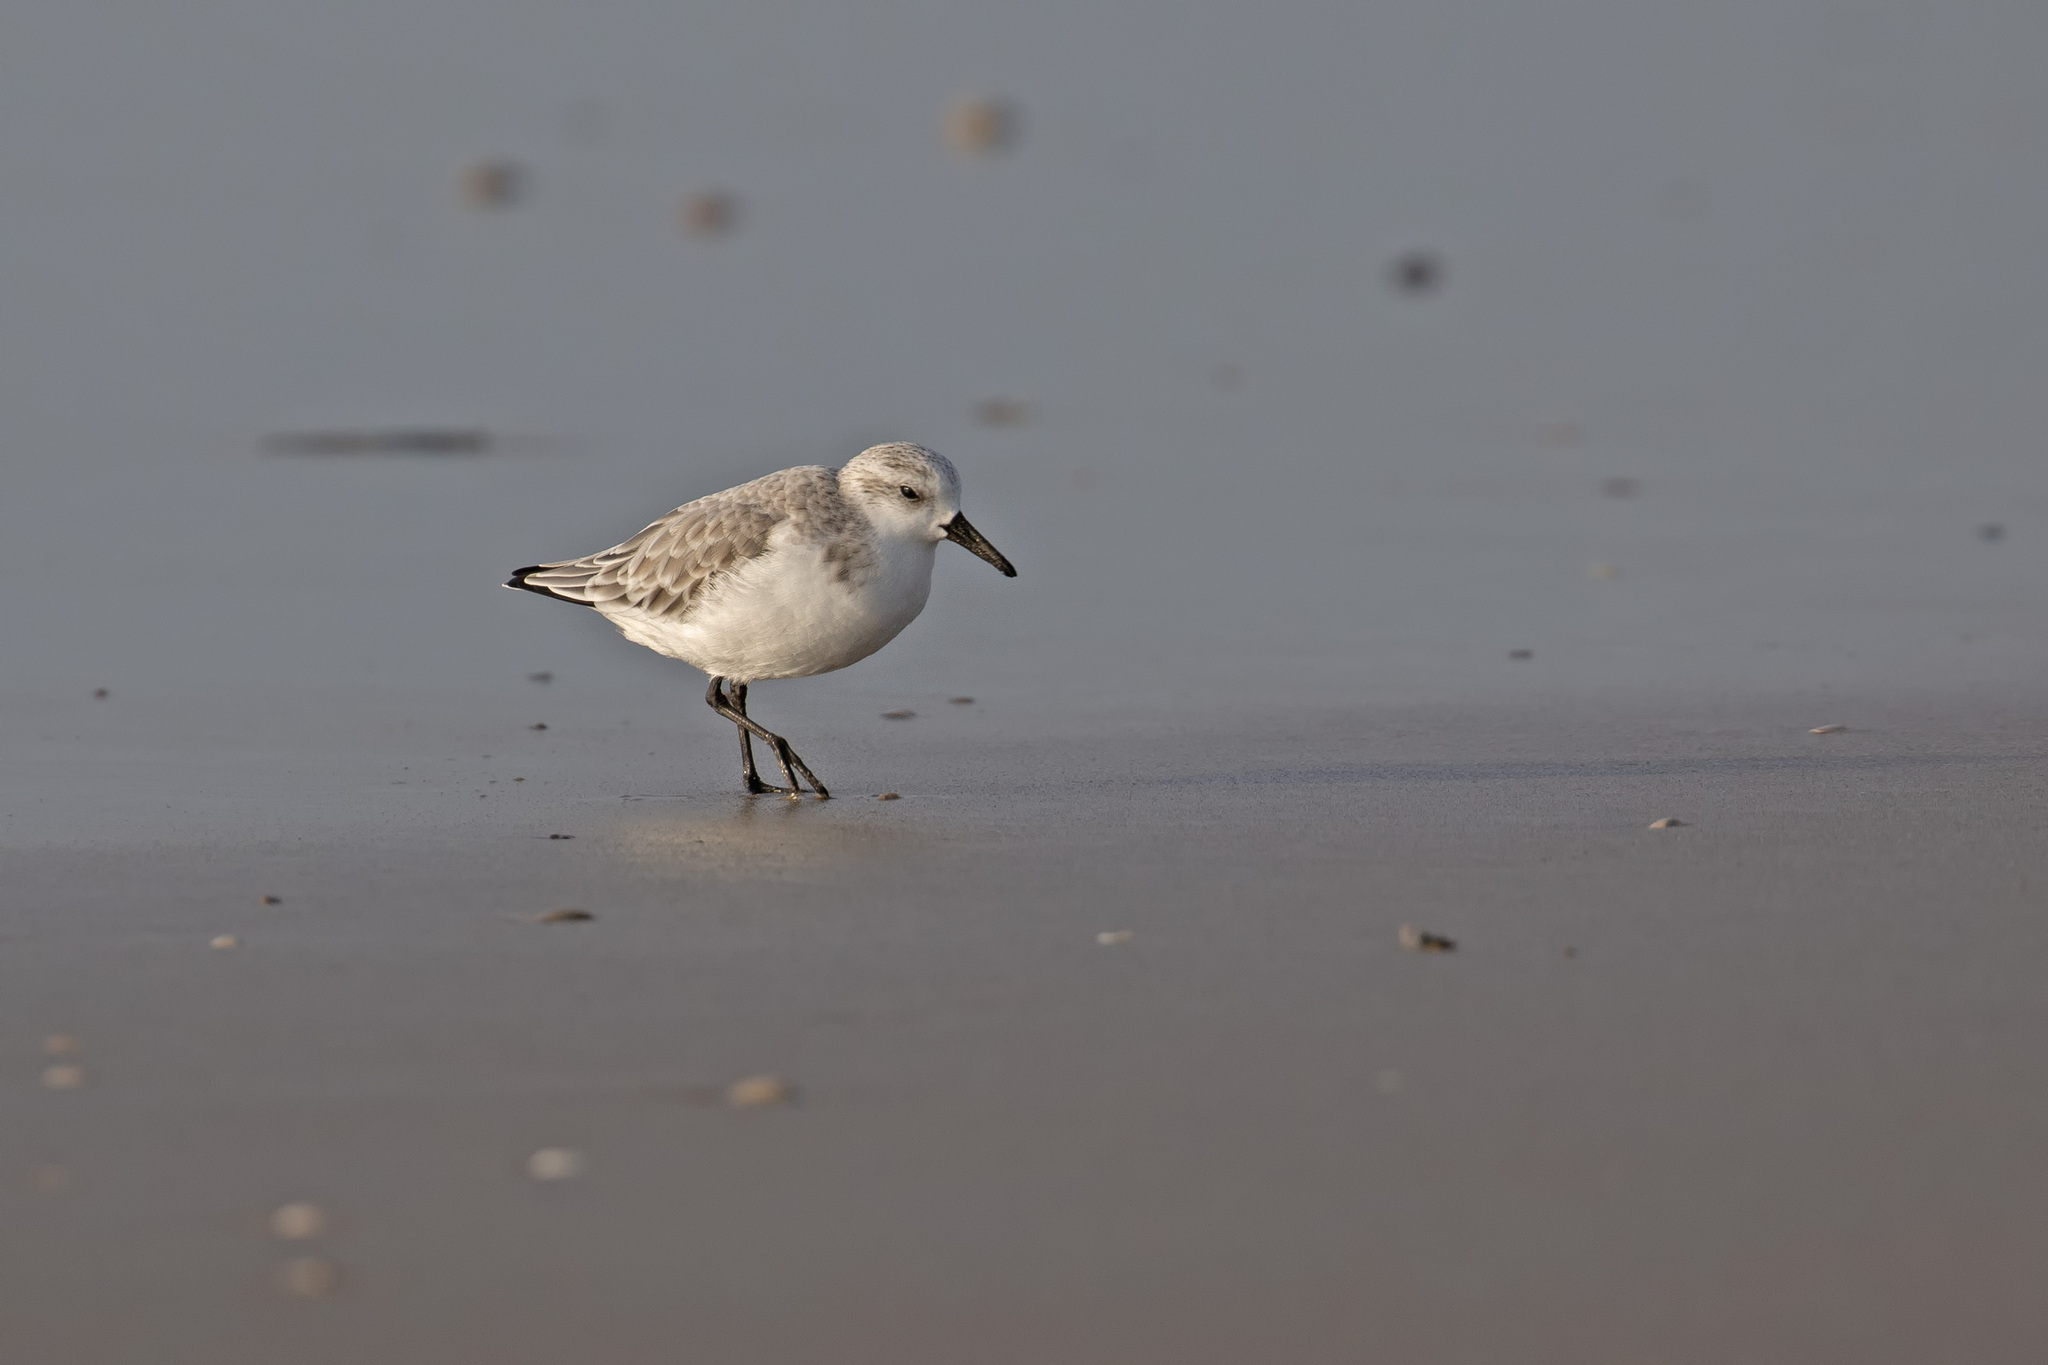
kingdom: Animalia
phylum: Chordata
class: Aves
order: Charadriiformes
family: Scolopacidae
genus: Calidris
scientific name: Calidris alba
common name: Sanderling
